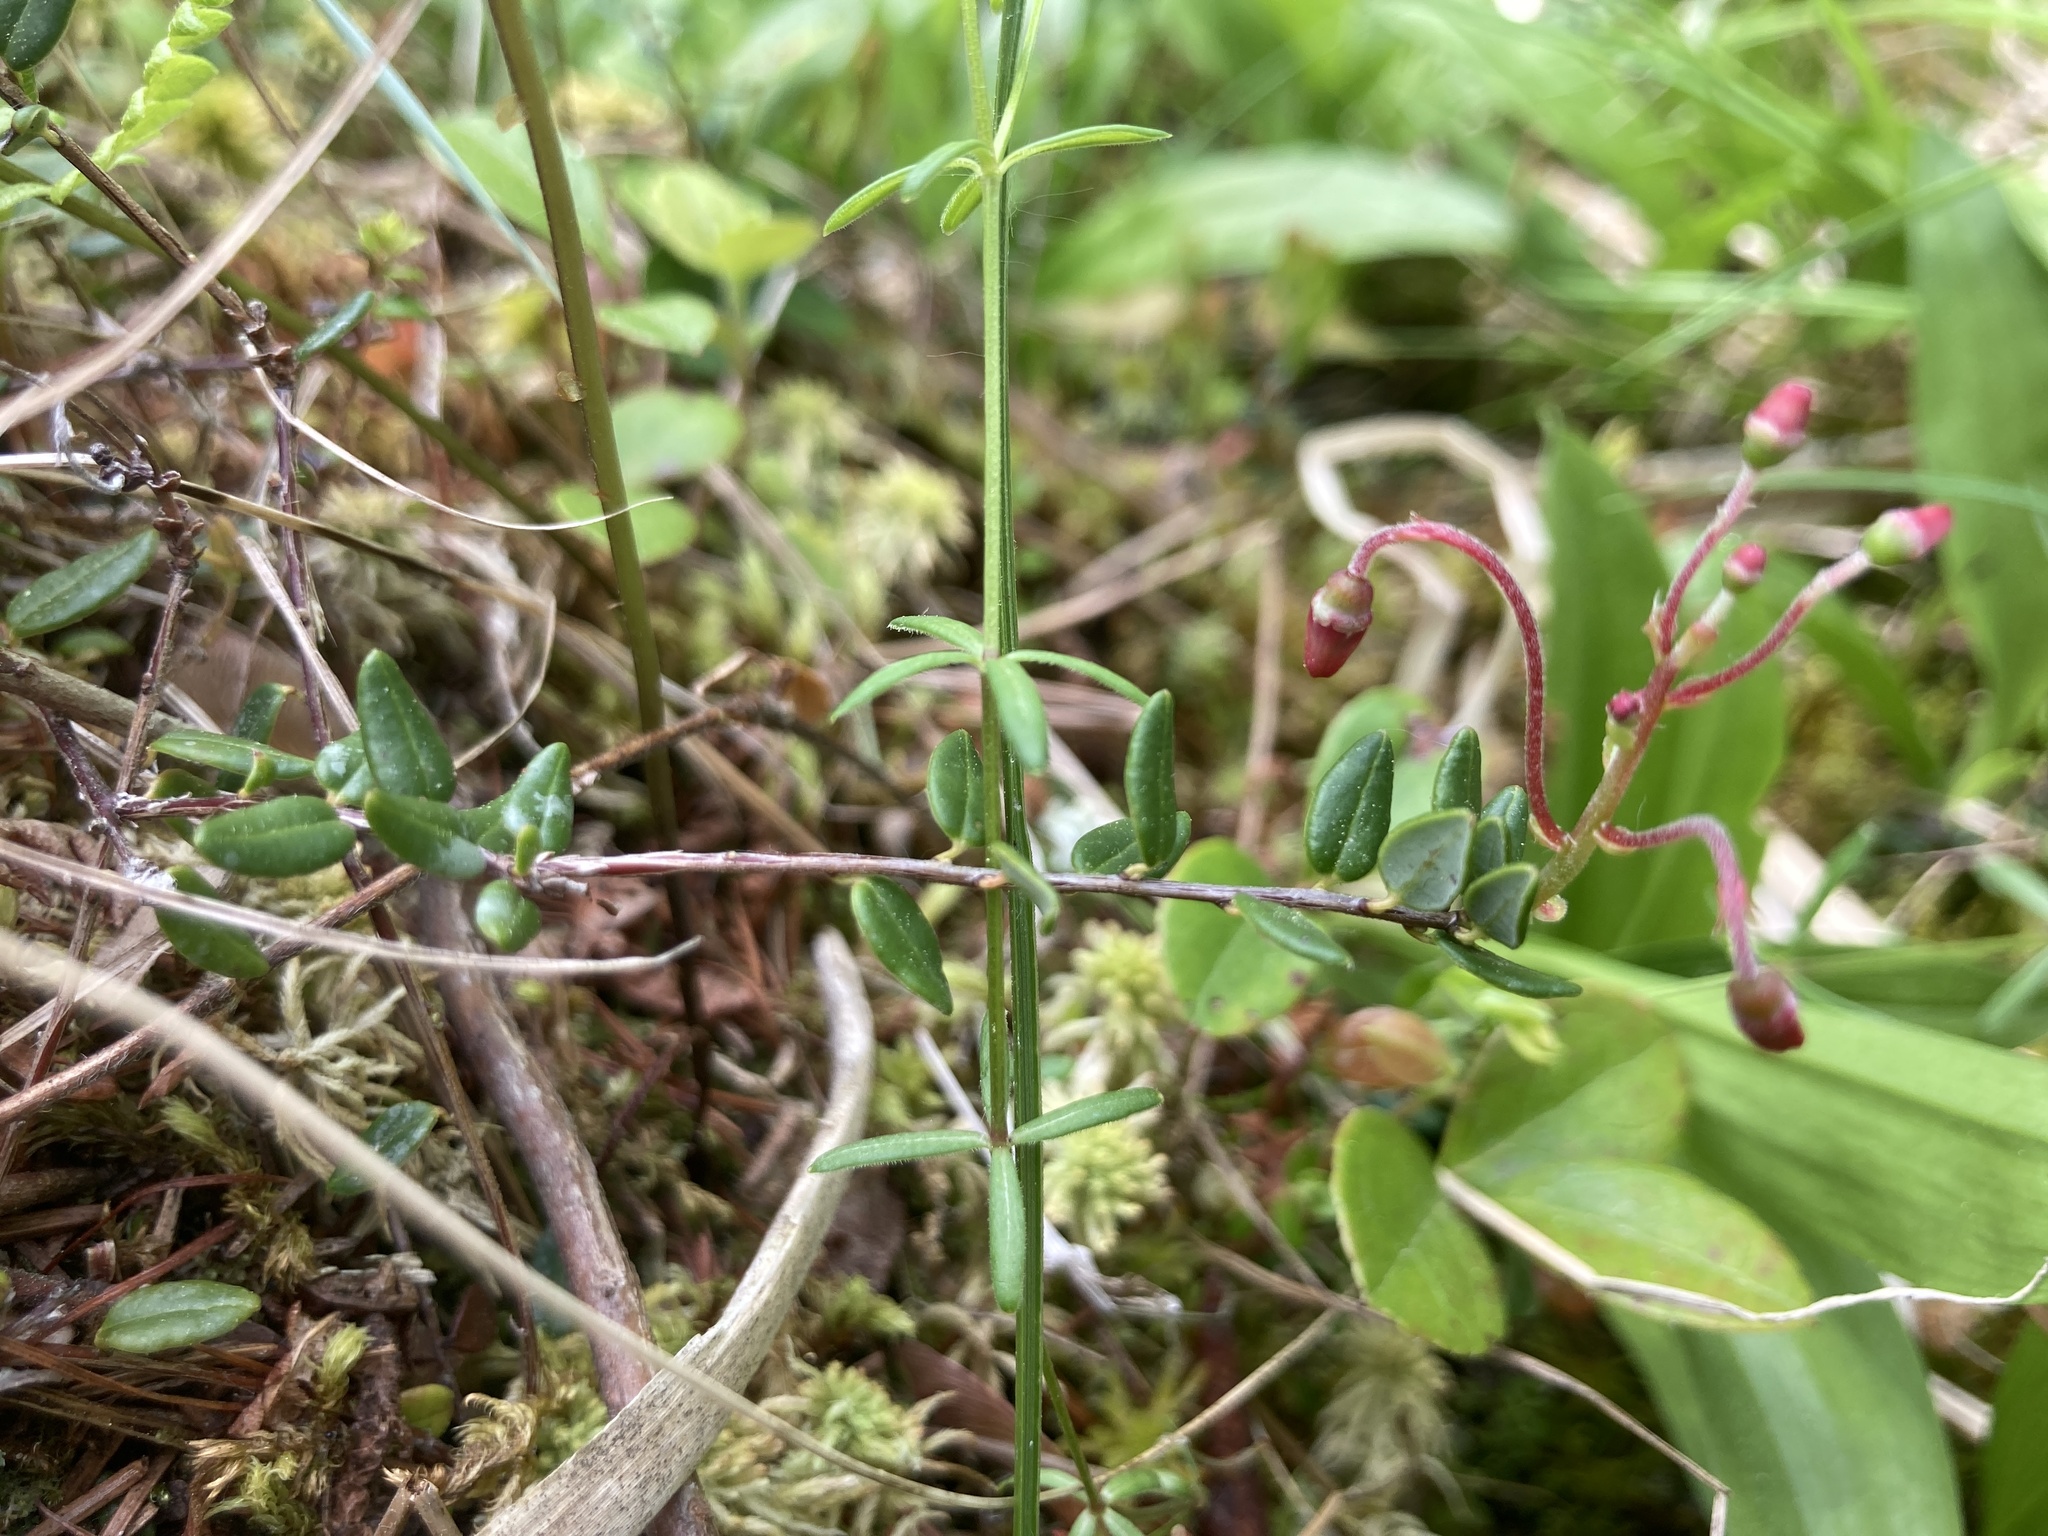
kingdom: Plantae
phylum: Tracheophyta
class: Magnoliopsida
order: Ericales
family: Ericaceae
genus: Vaccinium
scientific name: Vaccinium oxycoccos
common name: Cranberry
